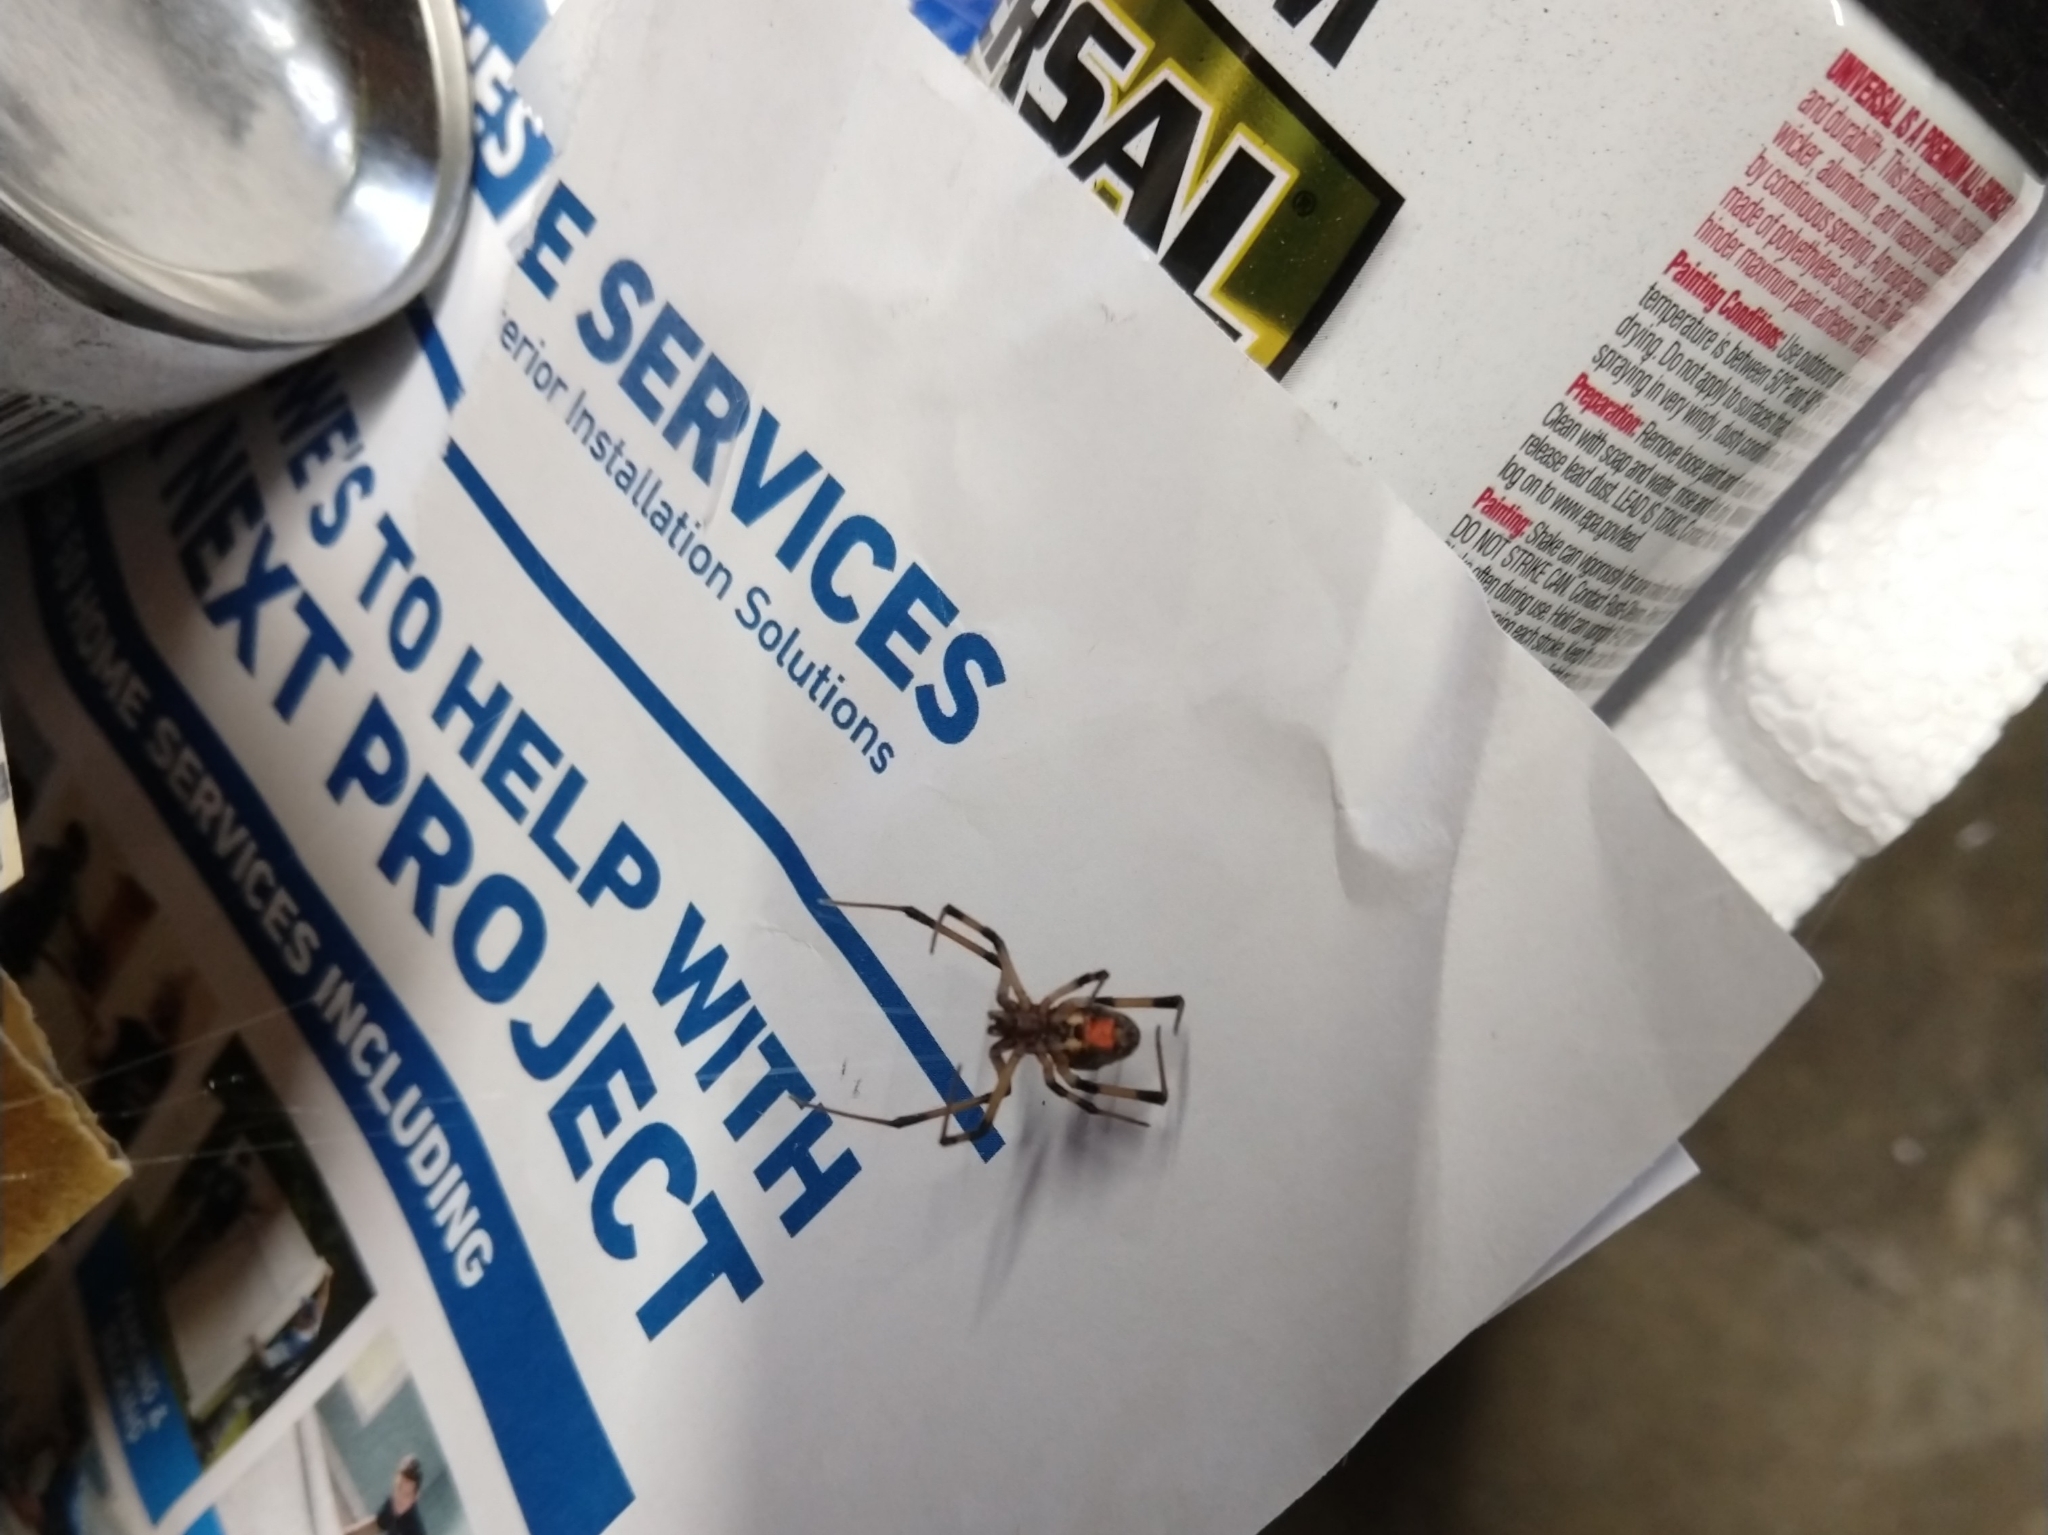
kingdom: Animalia
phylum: Arthropoda
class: Arachnida
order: Araneae
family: Theridiidae
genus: Latrodectus
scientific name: Latrodectus geometricus
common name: Brown widow spider
